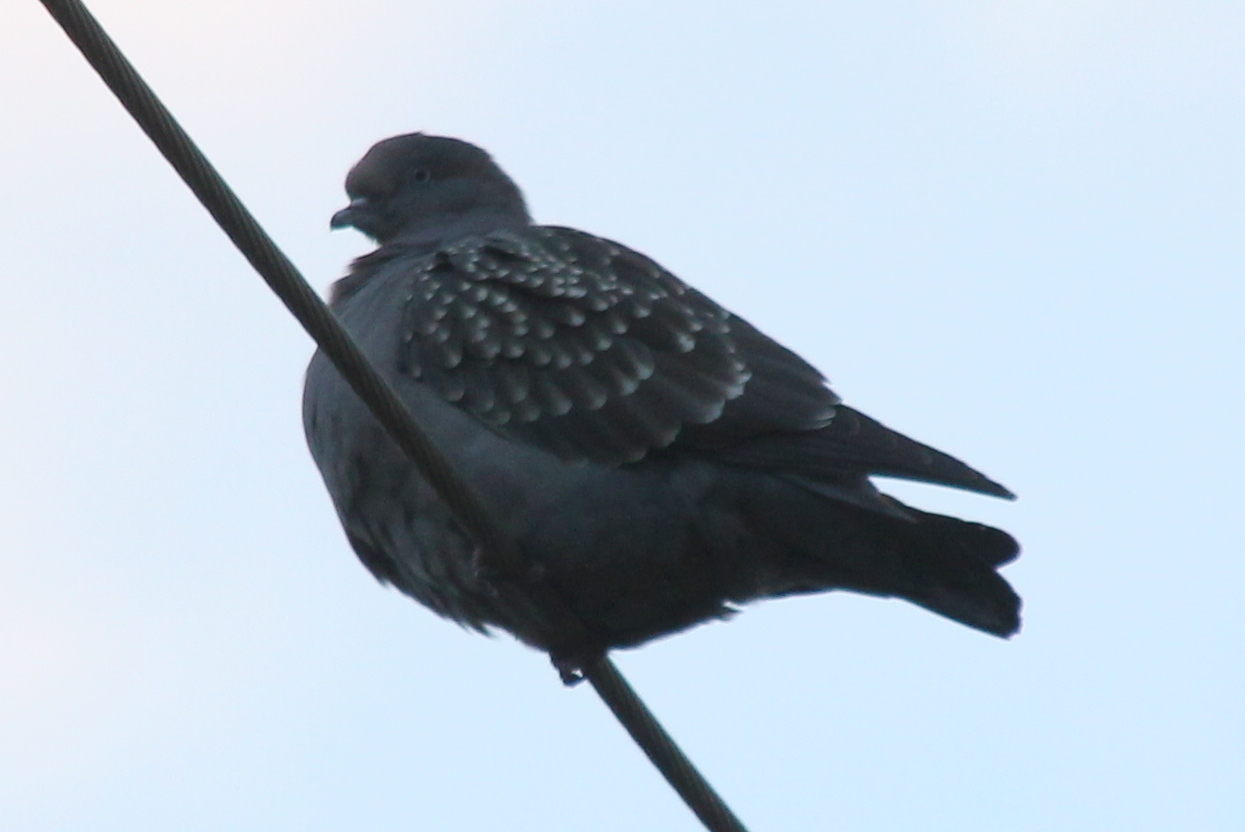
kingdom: Animalia
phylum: Chordata
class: Aves
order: Columbiformes
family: Columbidae
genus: Patagioenas
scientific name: Patagioenas maculosa
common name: Spot-winged pigeon
